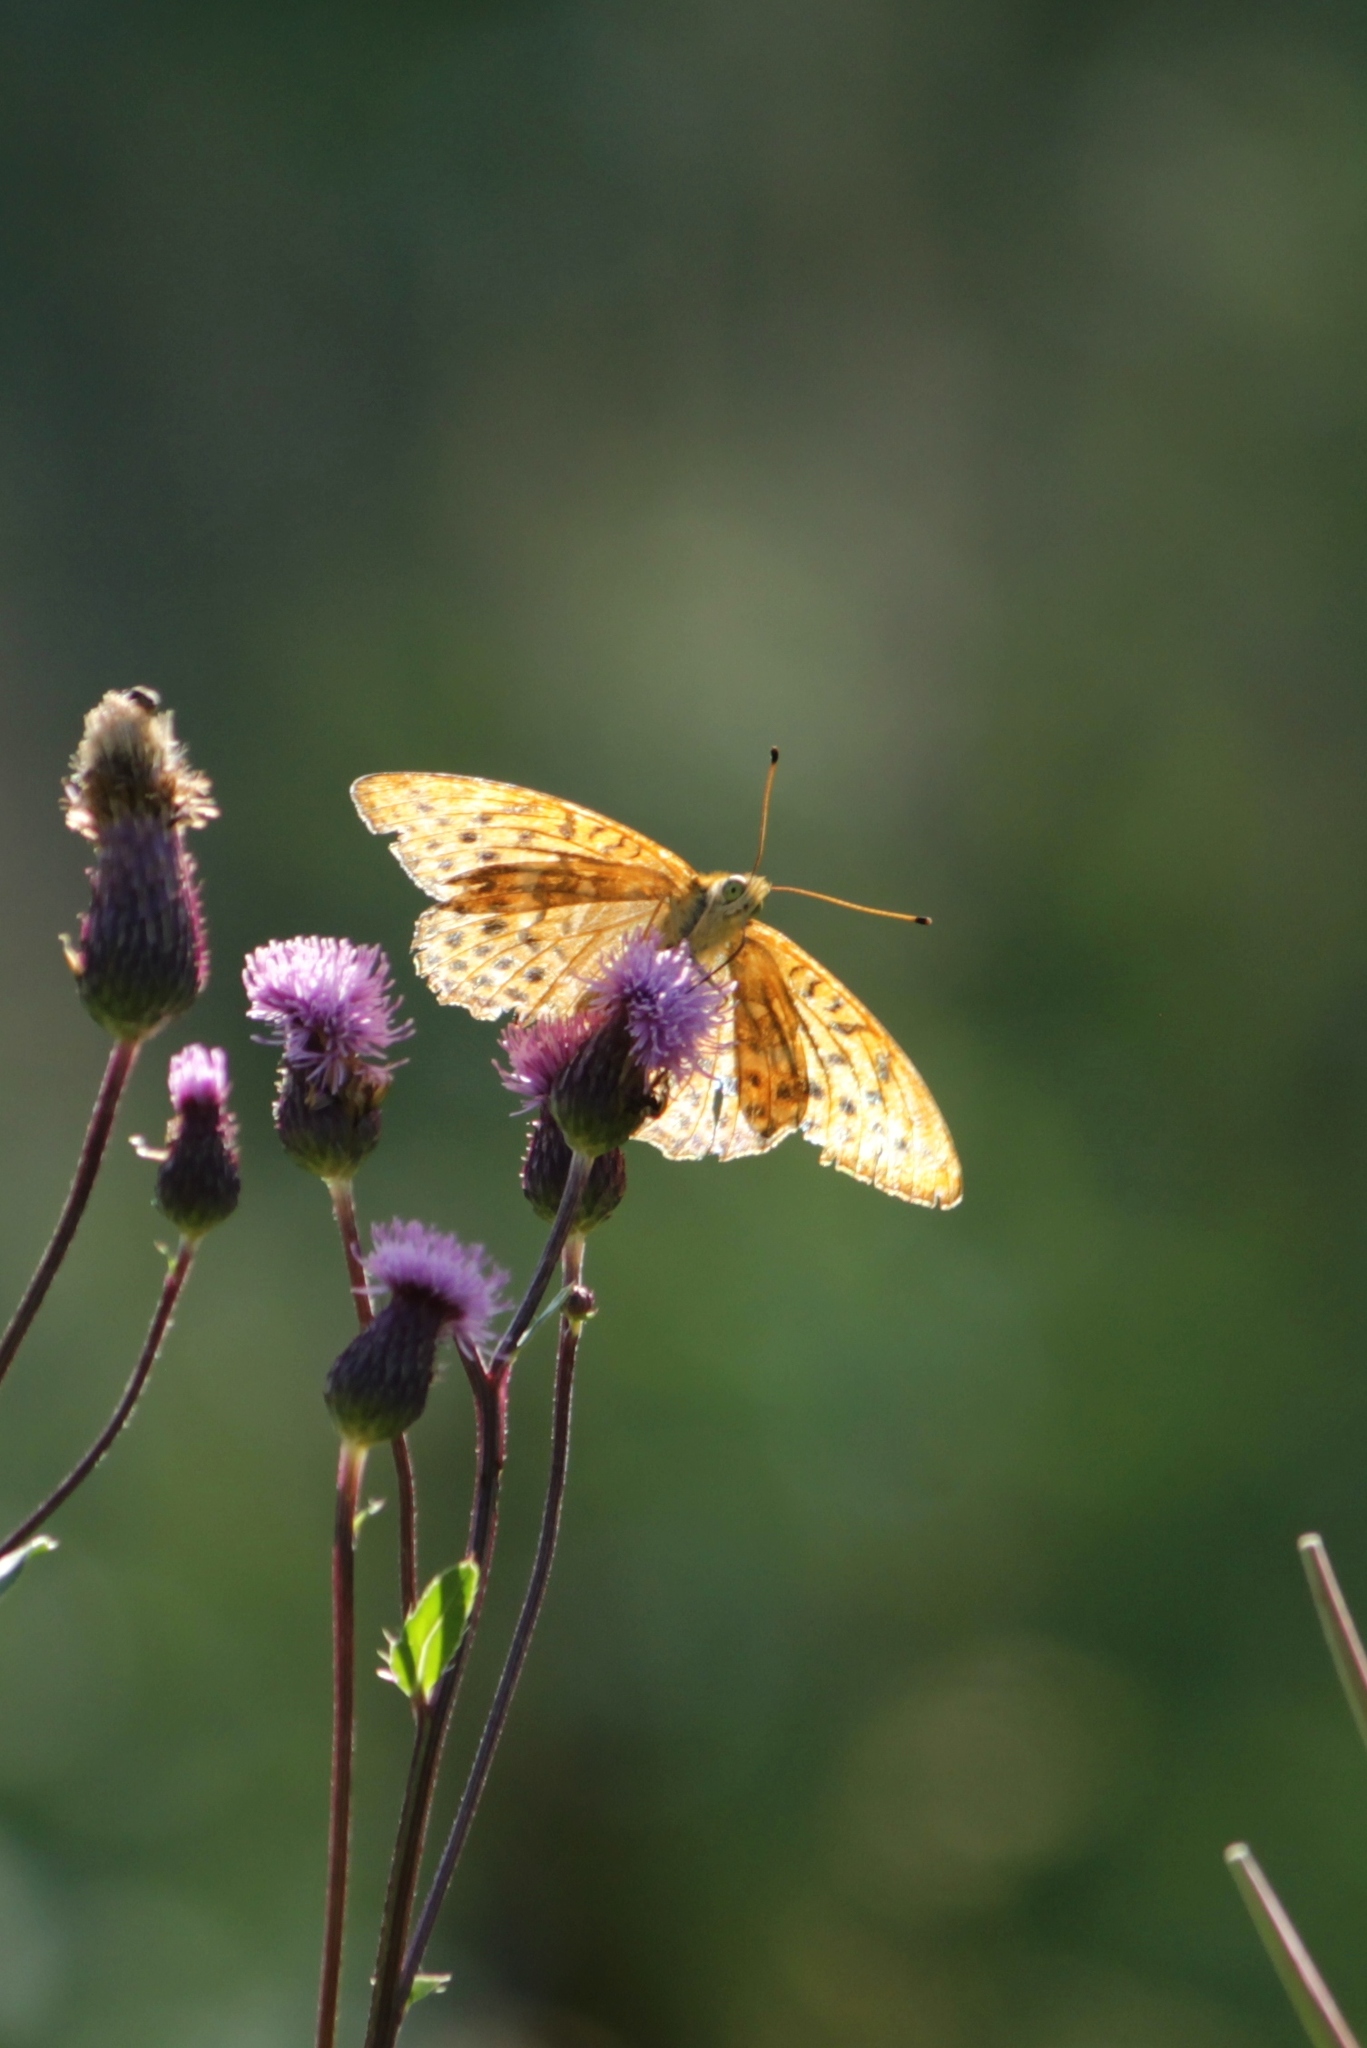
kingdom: Animalia
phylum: Arthropoda
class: Insecta
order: Lepidoptera
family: Nymphalidae
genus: Argynnis
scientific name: Argynnis paphia
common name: Silver-washed fritillary
